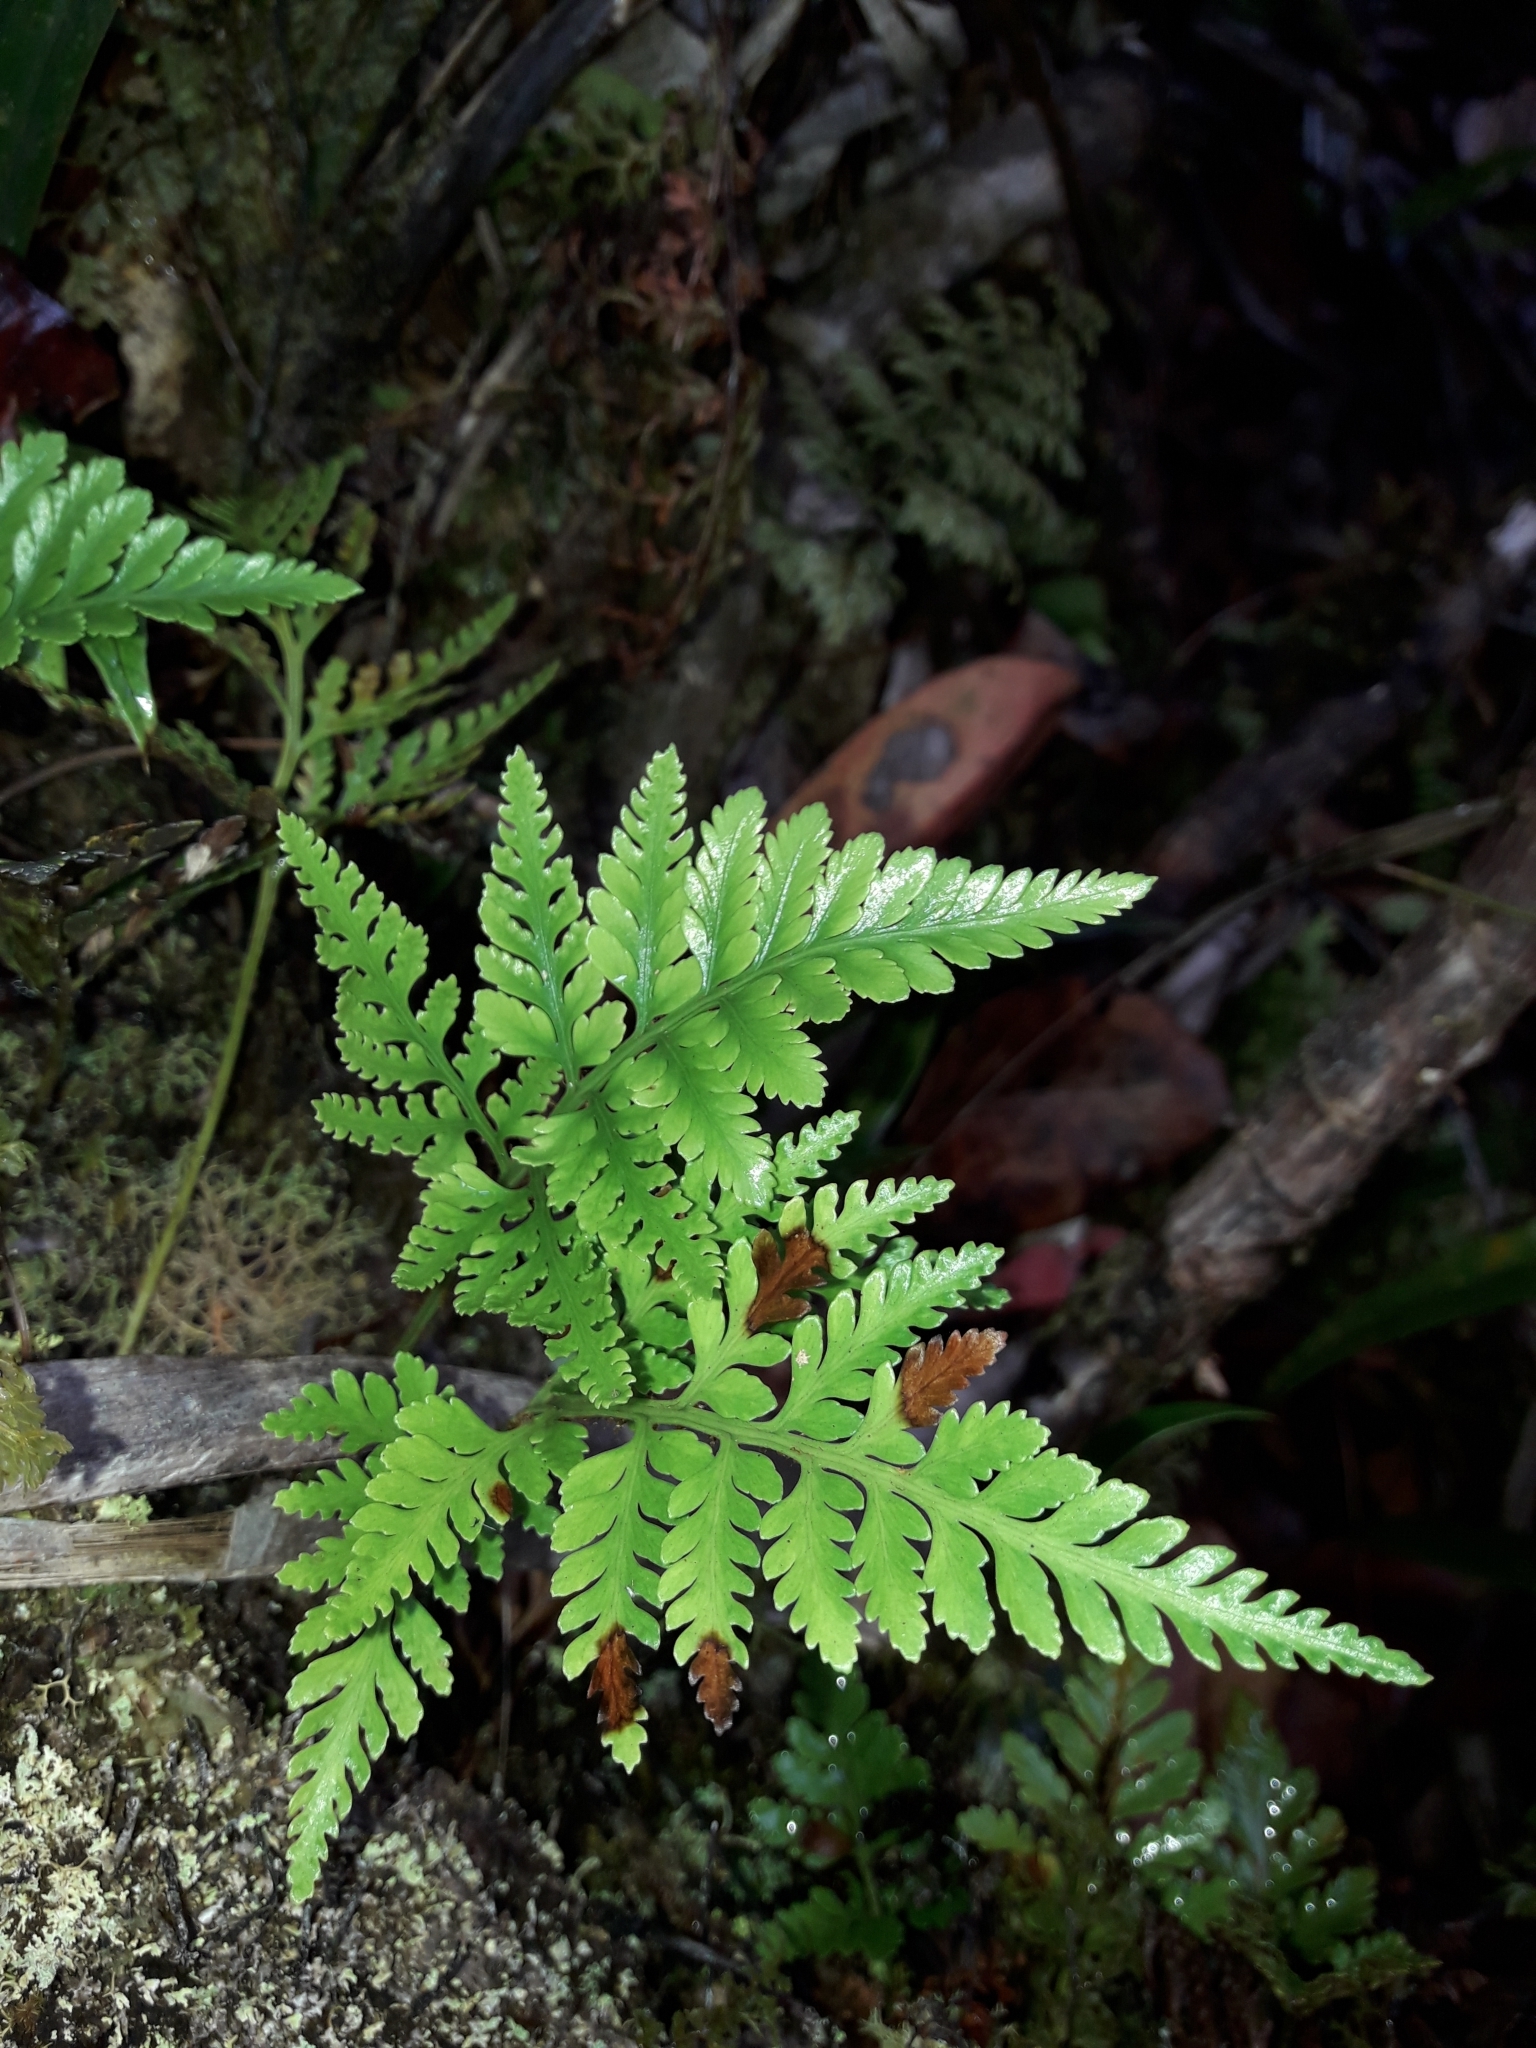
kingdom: Plantae
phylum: Tracheophyta
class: Polypodiopsida
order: Polypodiales
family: Davalliaceae
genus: Davallia
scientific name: Davallia repens
